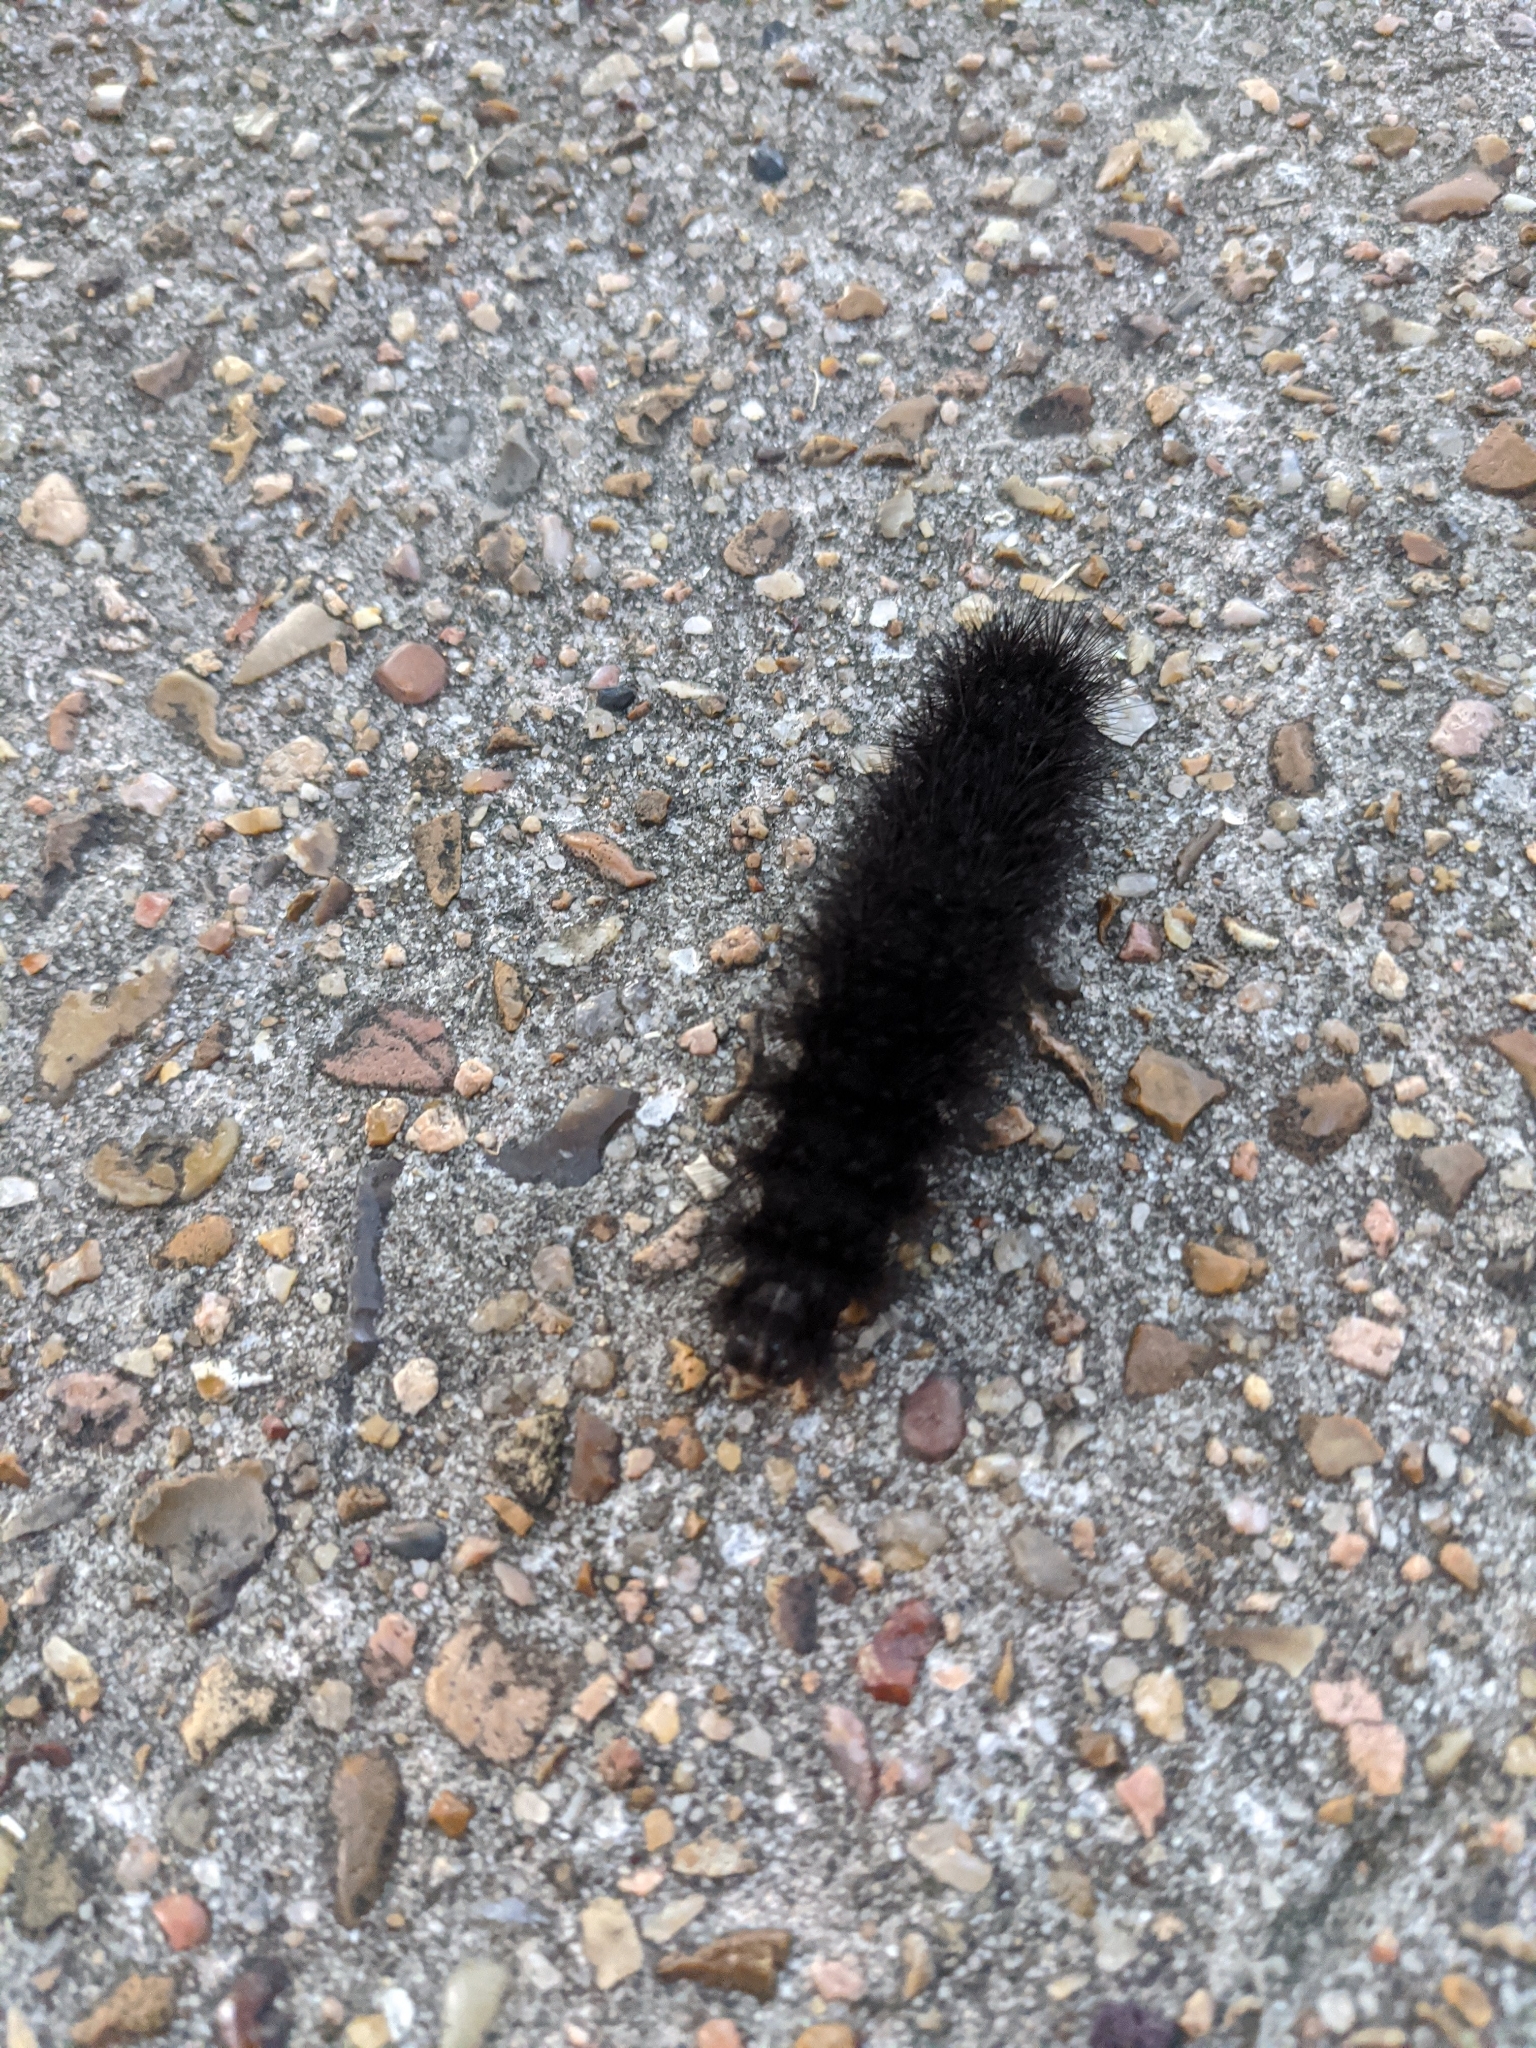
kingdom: Animalia
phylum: Arthropoda
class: Insecta
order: Lepidoptera
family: Erebidae
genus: Hypercompe
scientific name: Hypercompe scribonia
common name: Giant leopard moth
